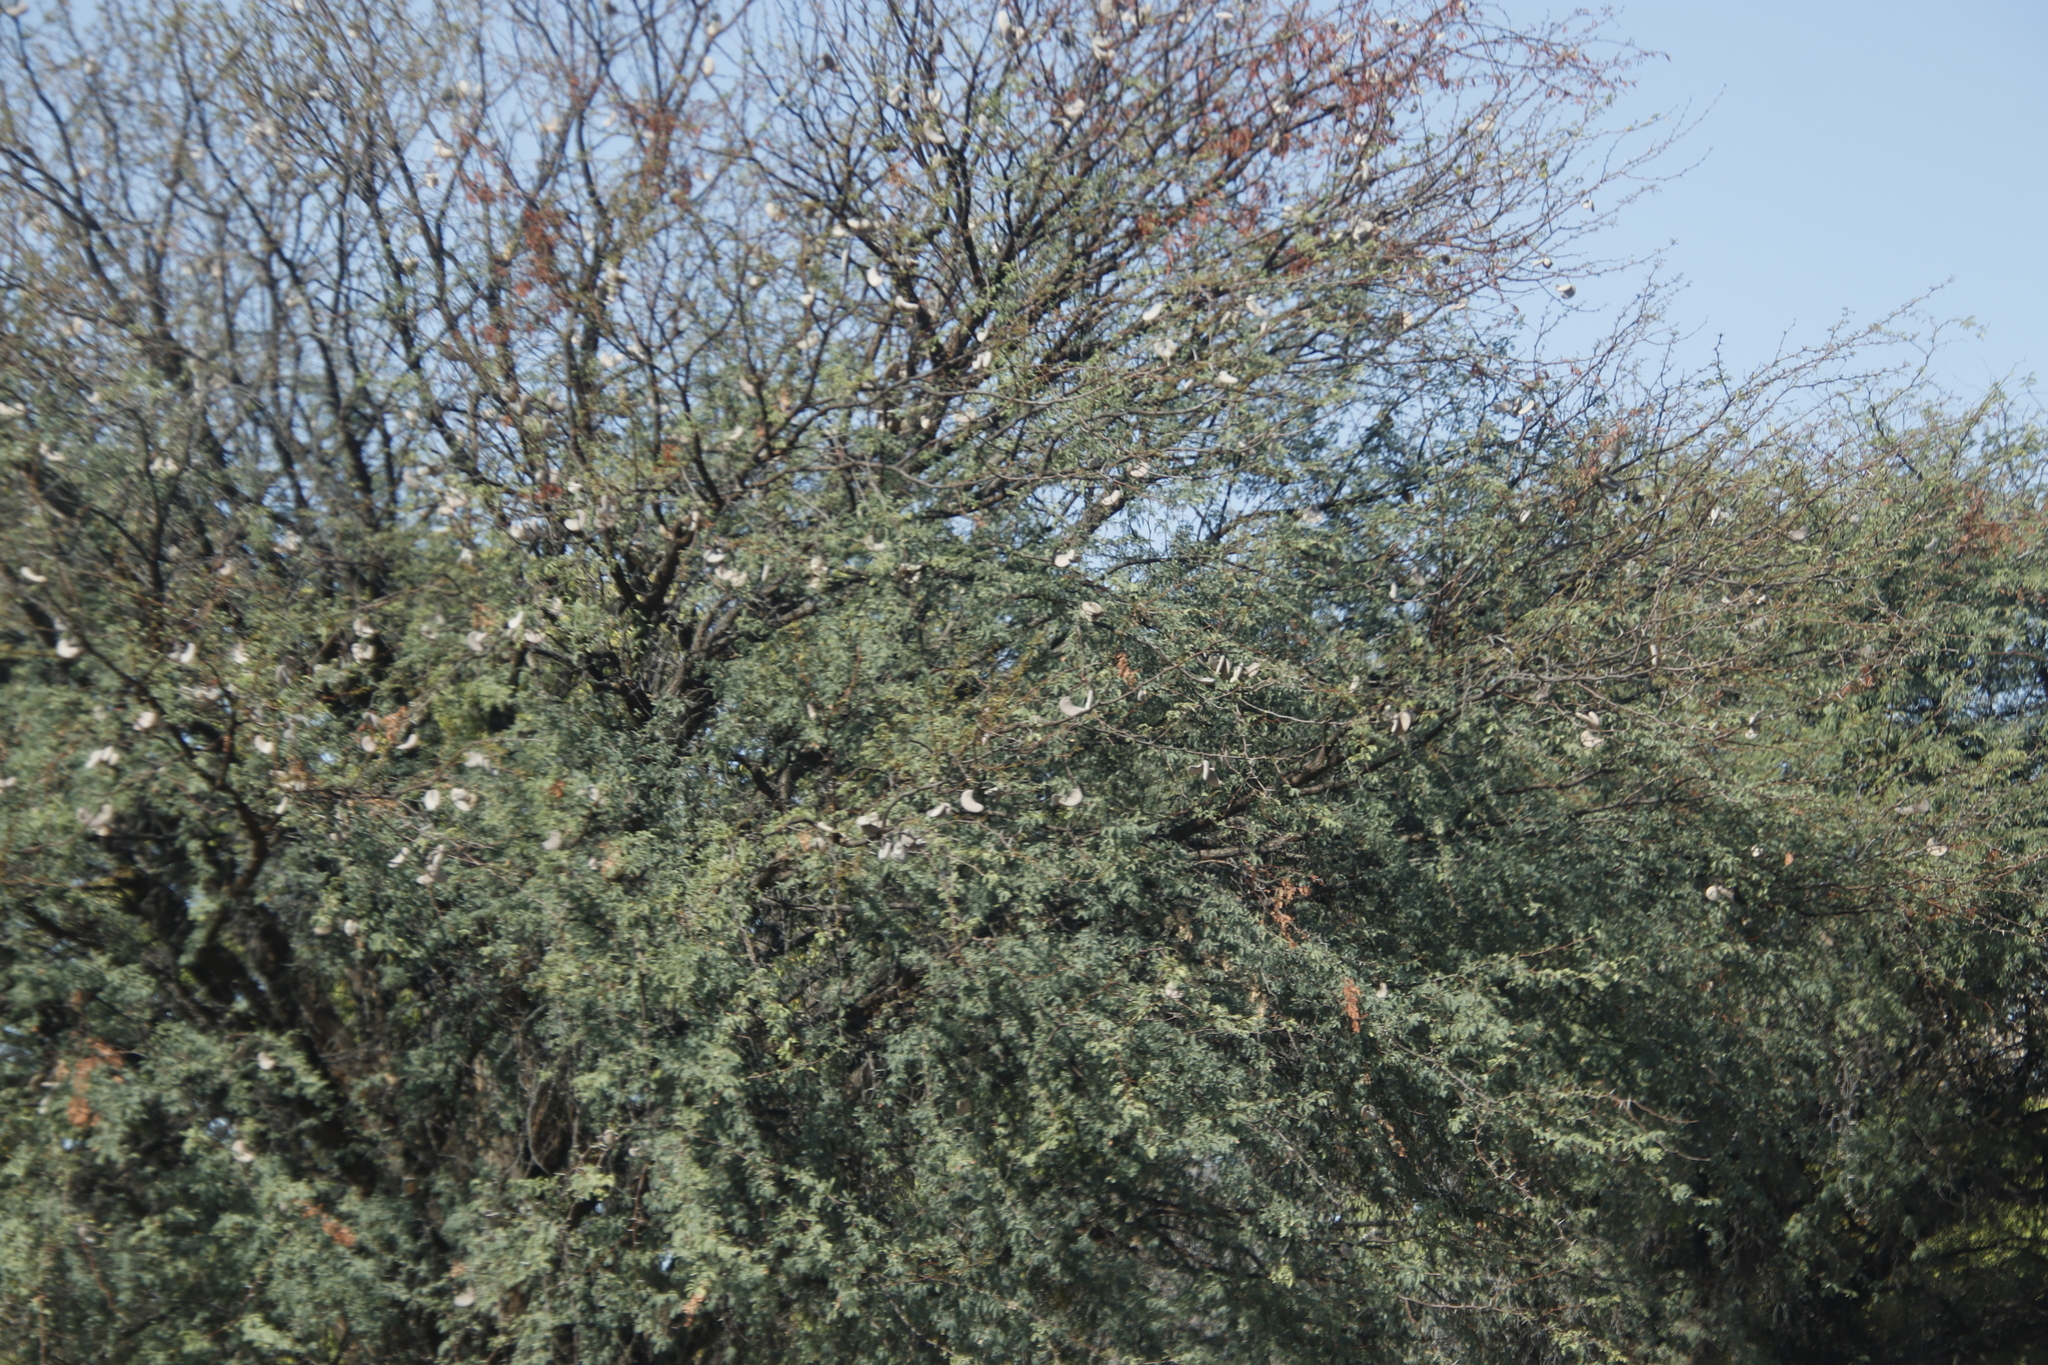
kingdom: Plantae
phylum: Tracheophyta
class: Magnoliopsida
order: Fabales
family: Fabaceae
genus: Vachellia
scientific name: Vachellia erioloba
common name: Camel thorn
